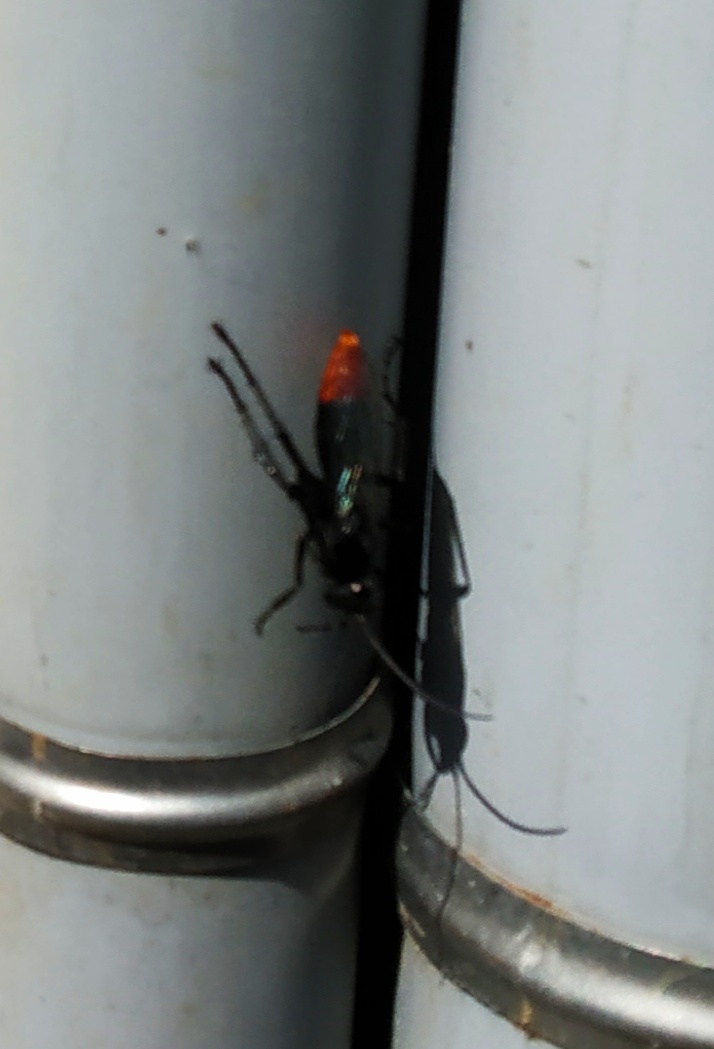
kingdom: Animalia
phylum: Arthropoda
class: Insecta
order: Hymenoptera
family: Pompilidae
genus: Tachypompilus
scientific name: Tachypompilus analis
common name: Spider wasp
